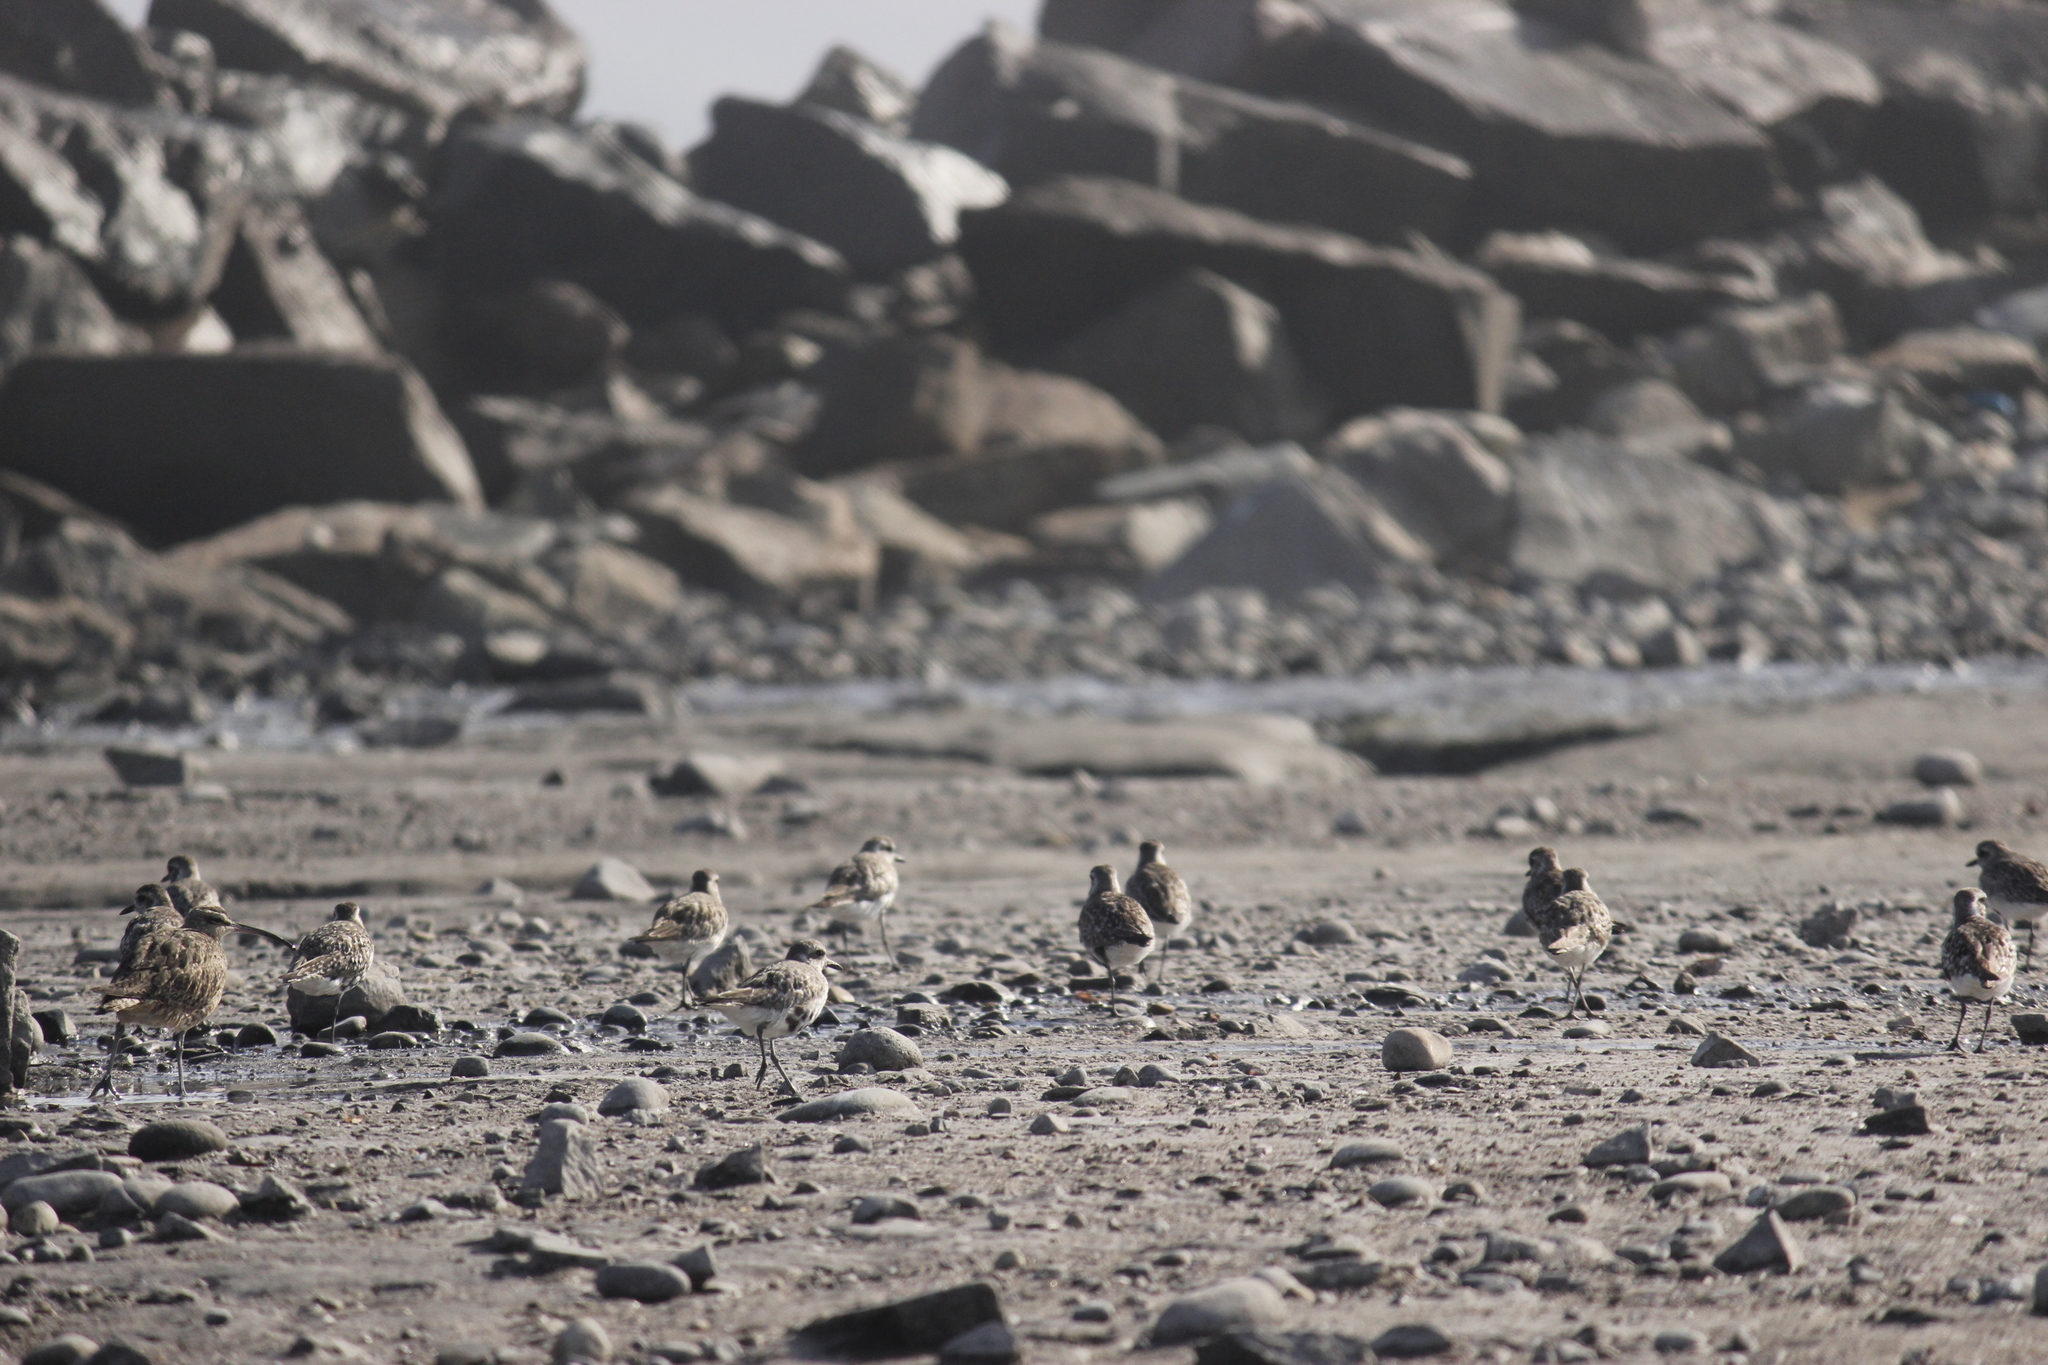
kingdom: Animalia
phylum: Chordata
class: Aves
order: Charadriiformes
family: Charadriidae
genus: Pluvialis
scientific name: Pluvialis squatarola
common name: Grey plover
